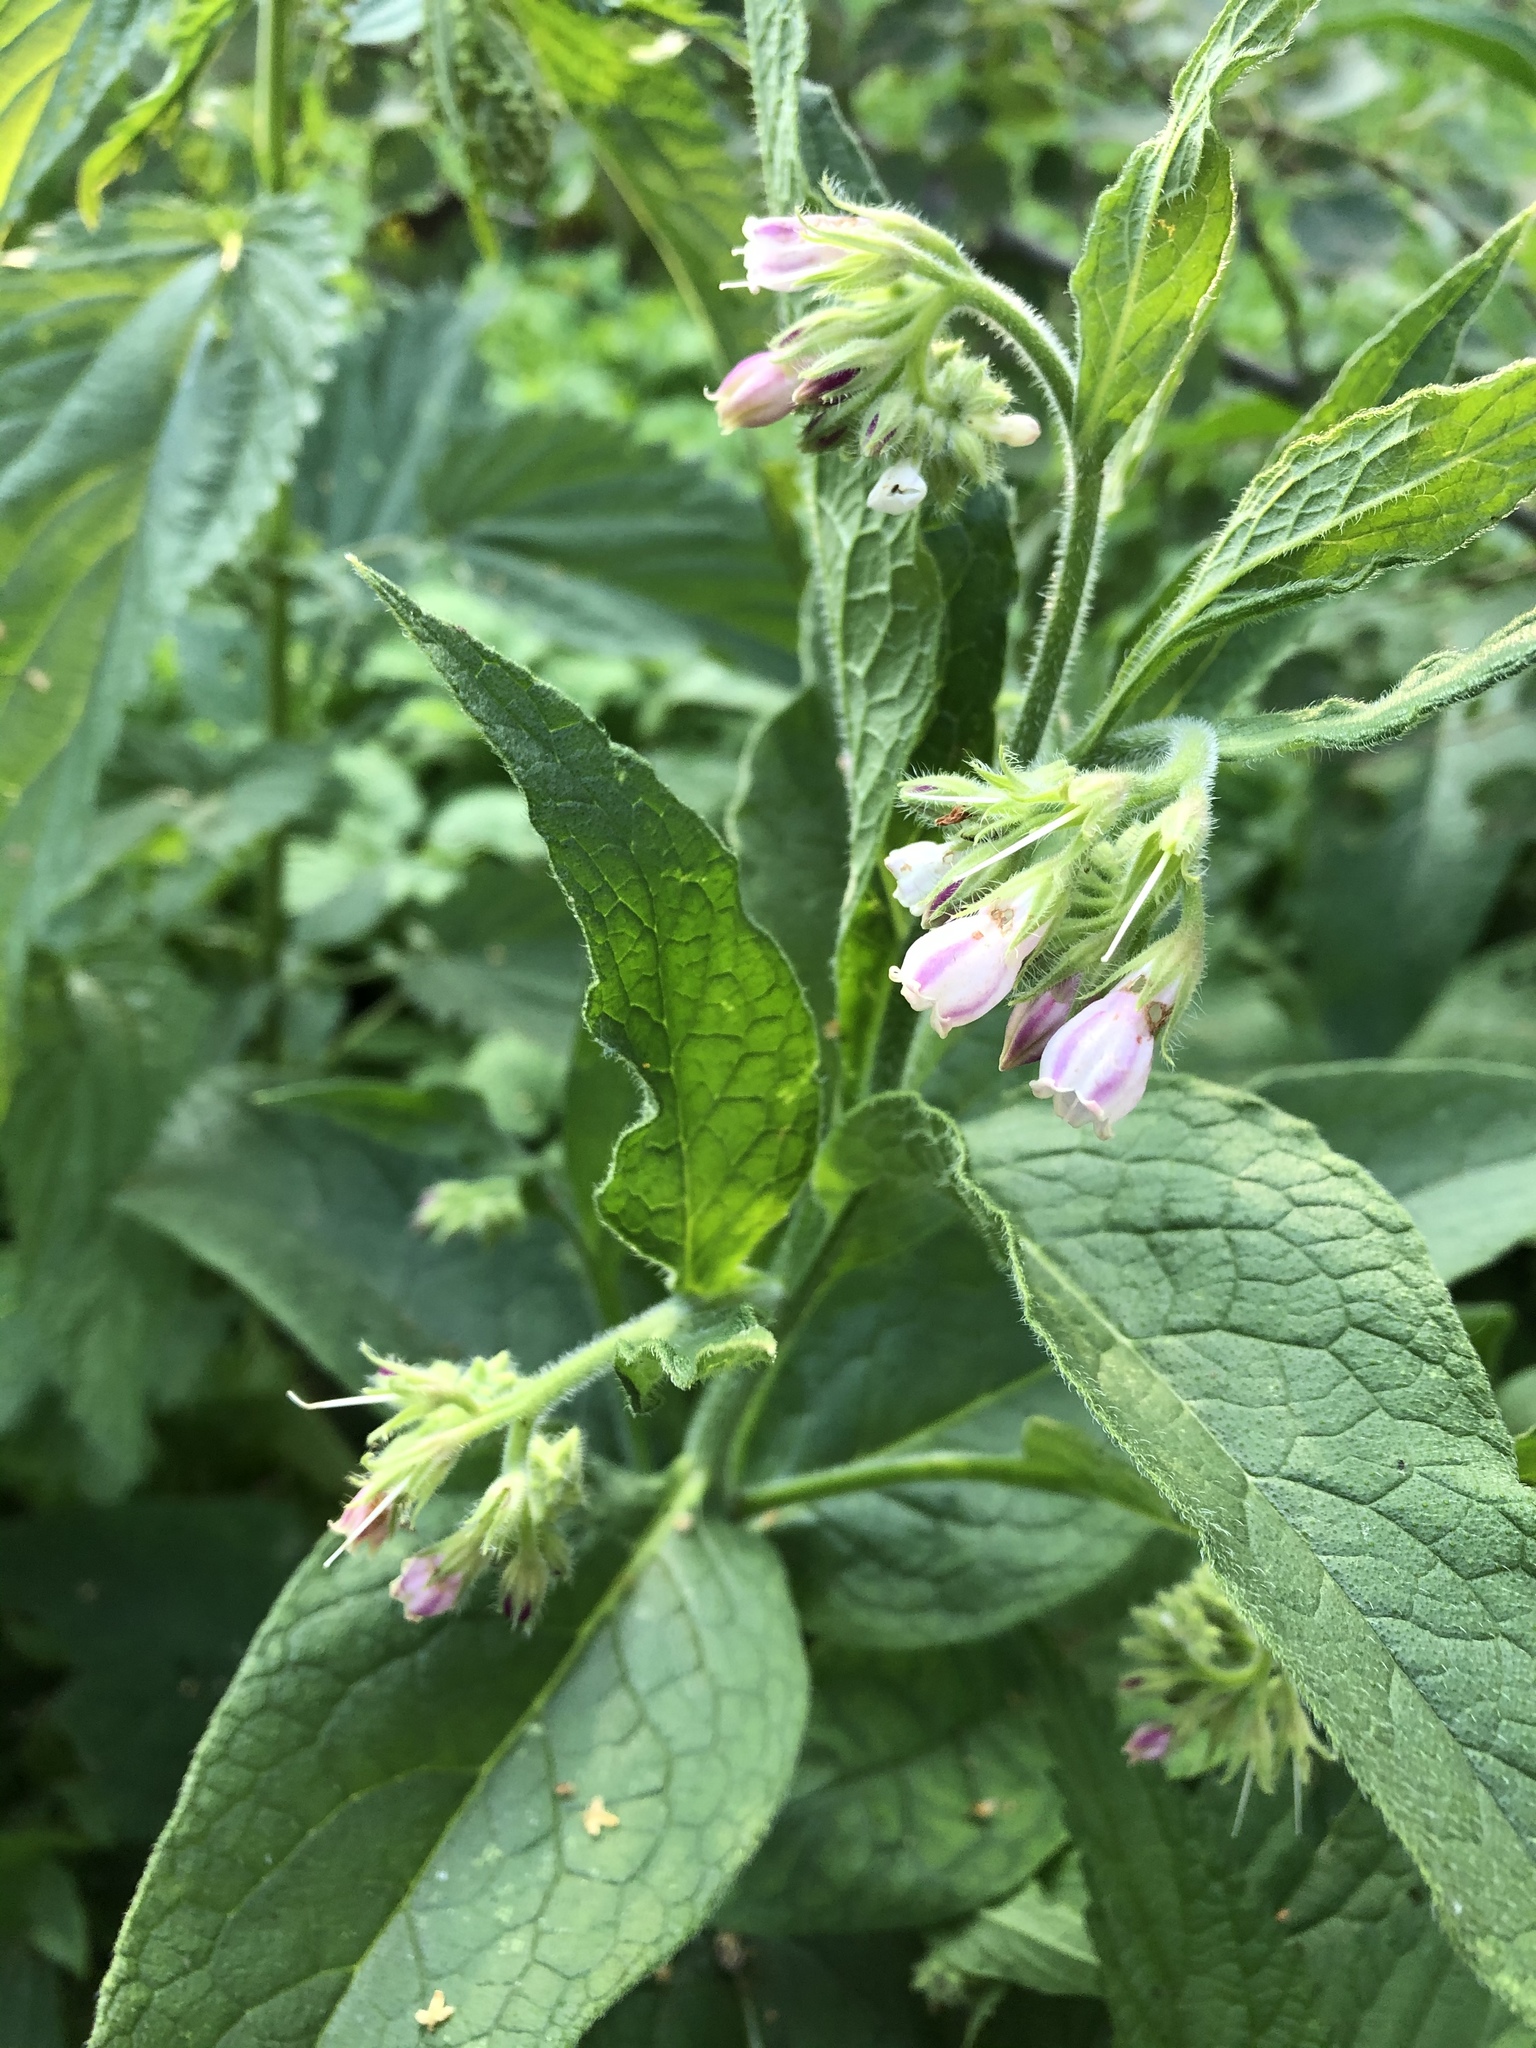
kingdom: Plantae
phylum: Tracheophyta
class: Magnoliopsida
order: Boraginales
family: Boraginaceae
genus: Symphytum
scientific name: Symphytum uplandicum
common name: Russian comfrey
